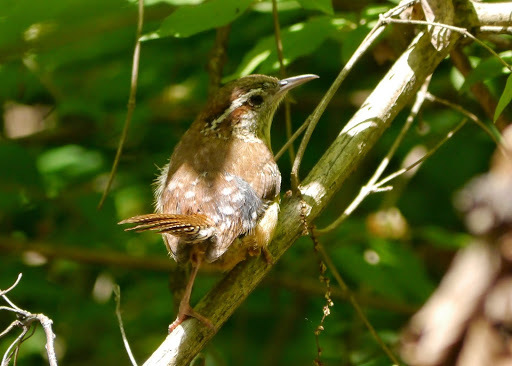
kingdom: Animalia
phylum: Chordata
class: Aves
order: Passeriformes
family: Troglodytidae
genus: Thryothorus
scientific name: Thryothorus ludovicianus
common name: Carolina wren
